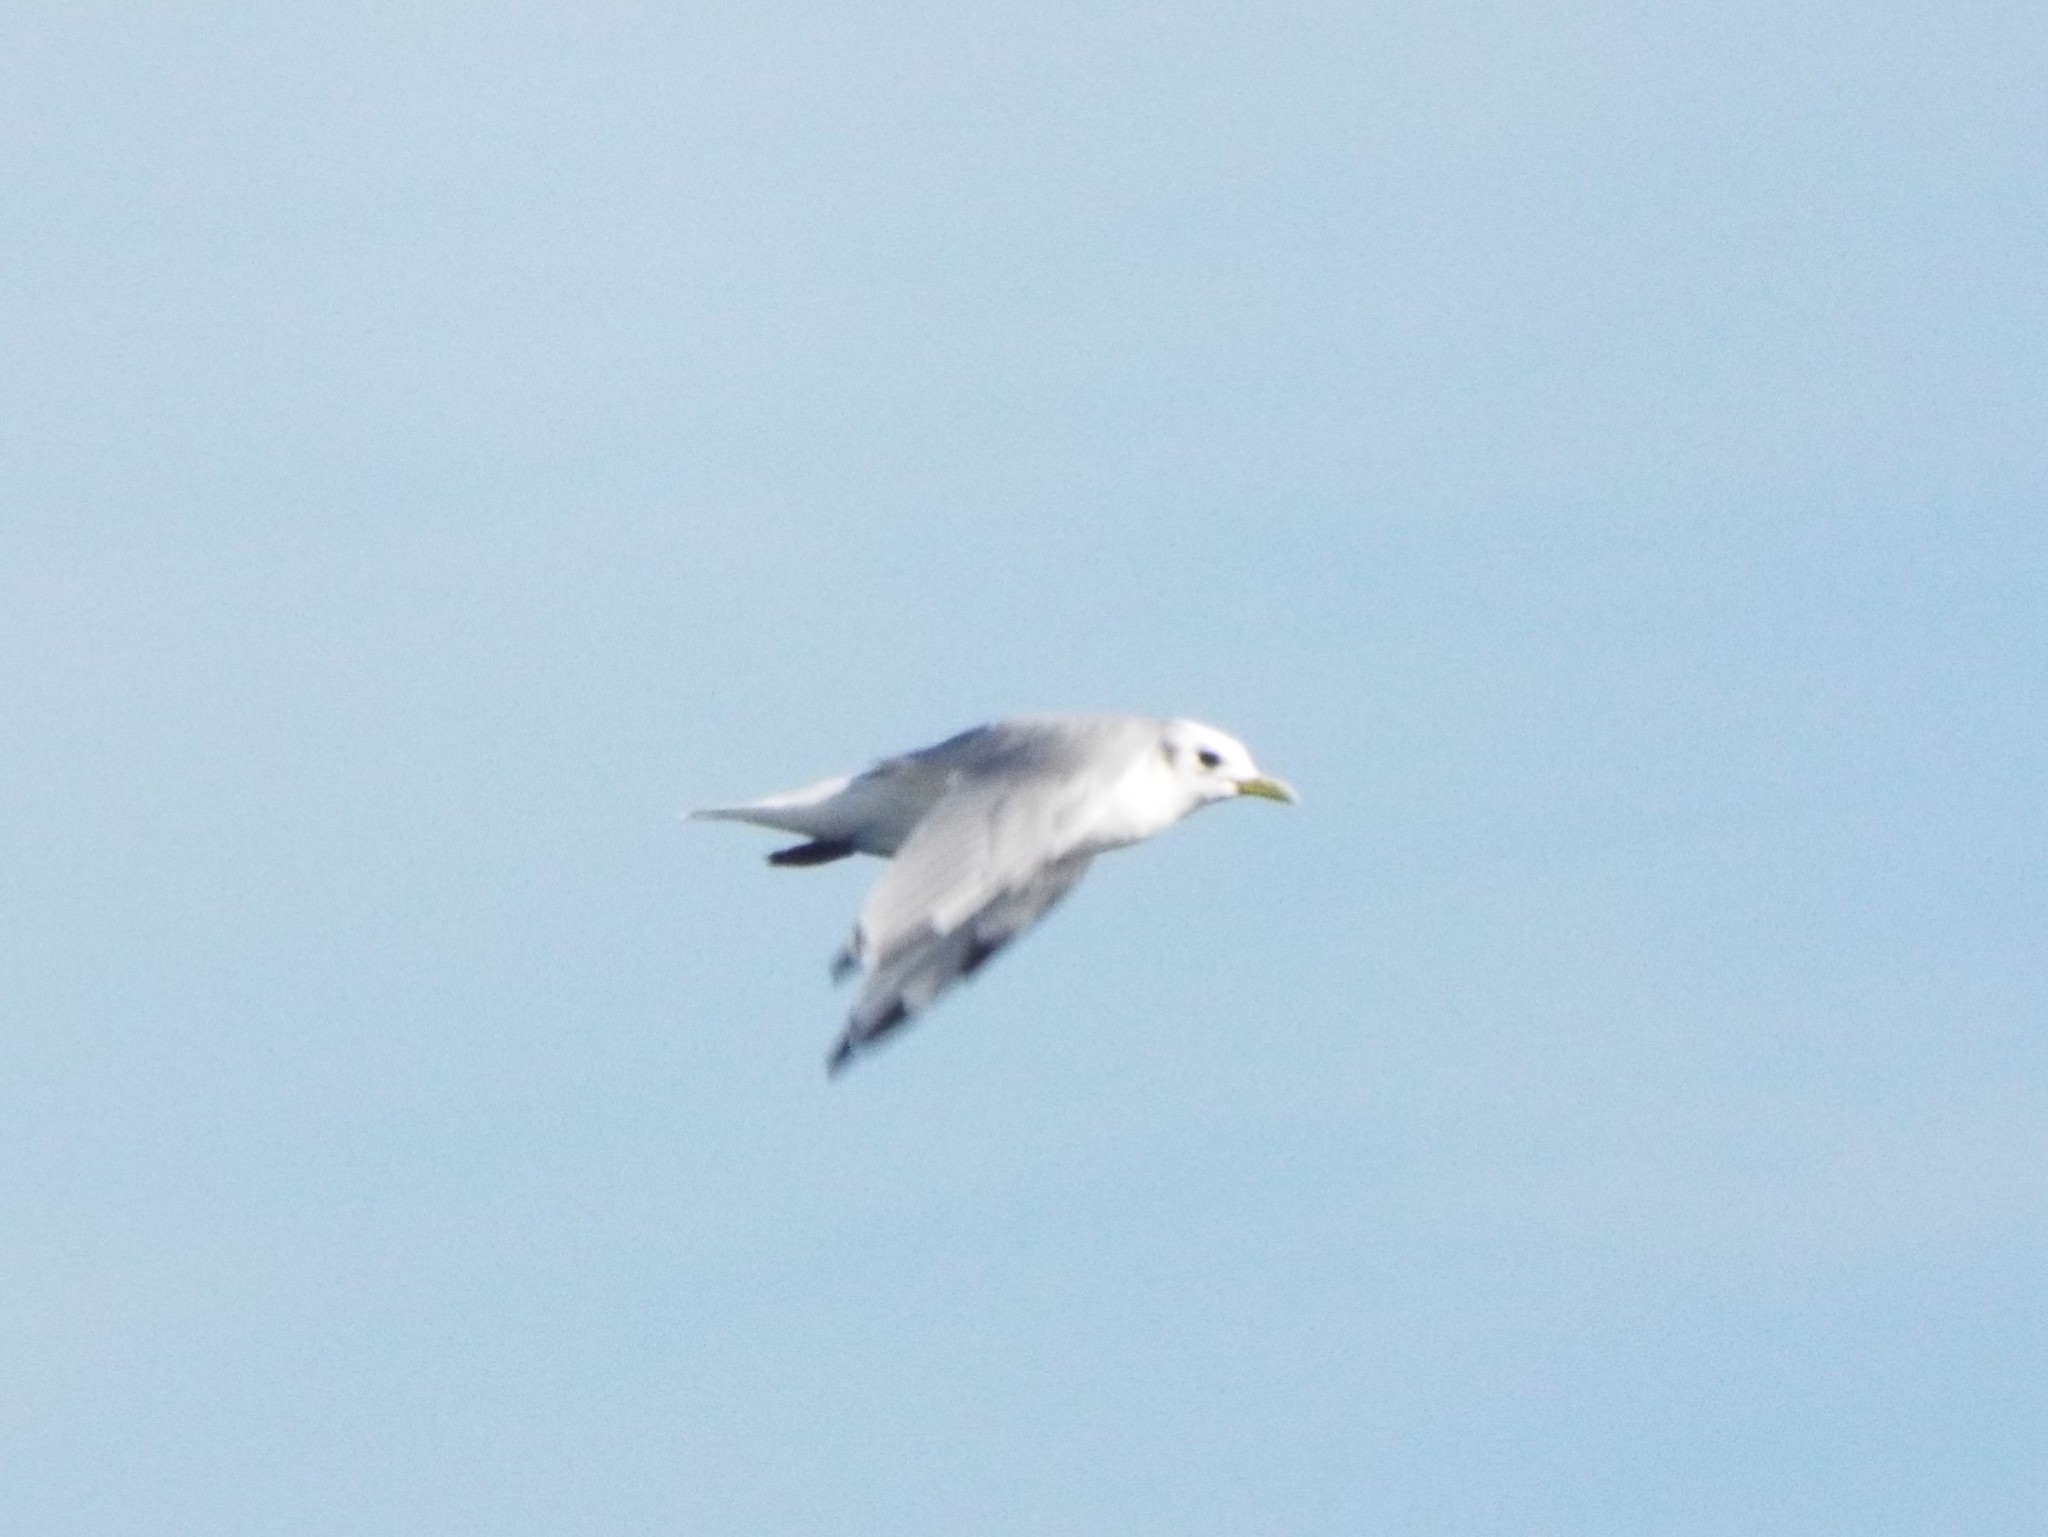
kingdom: Animalia
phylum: Chordata
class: Aves
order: Charadriiformes
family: Laridae
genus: Rissa
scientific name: Rissa tridactyla
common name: Black-legged kittiwake
